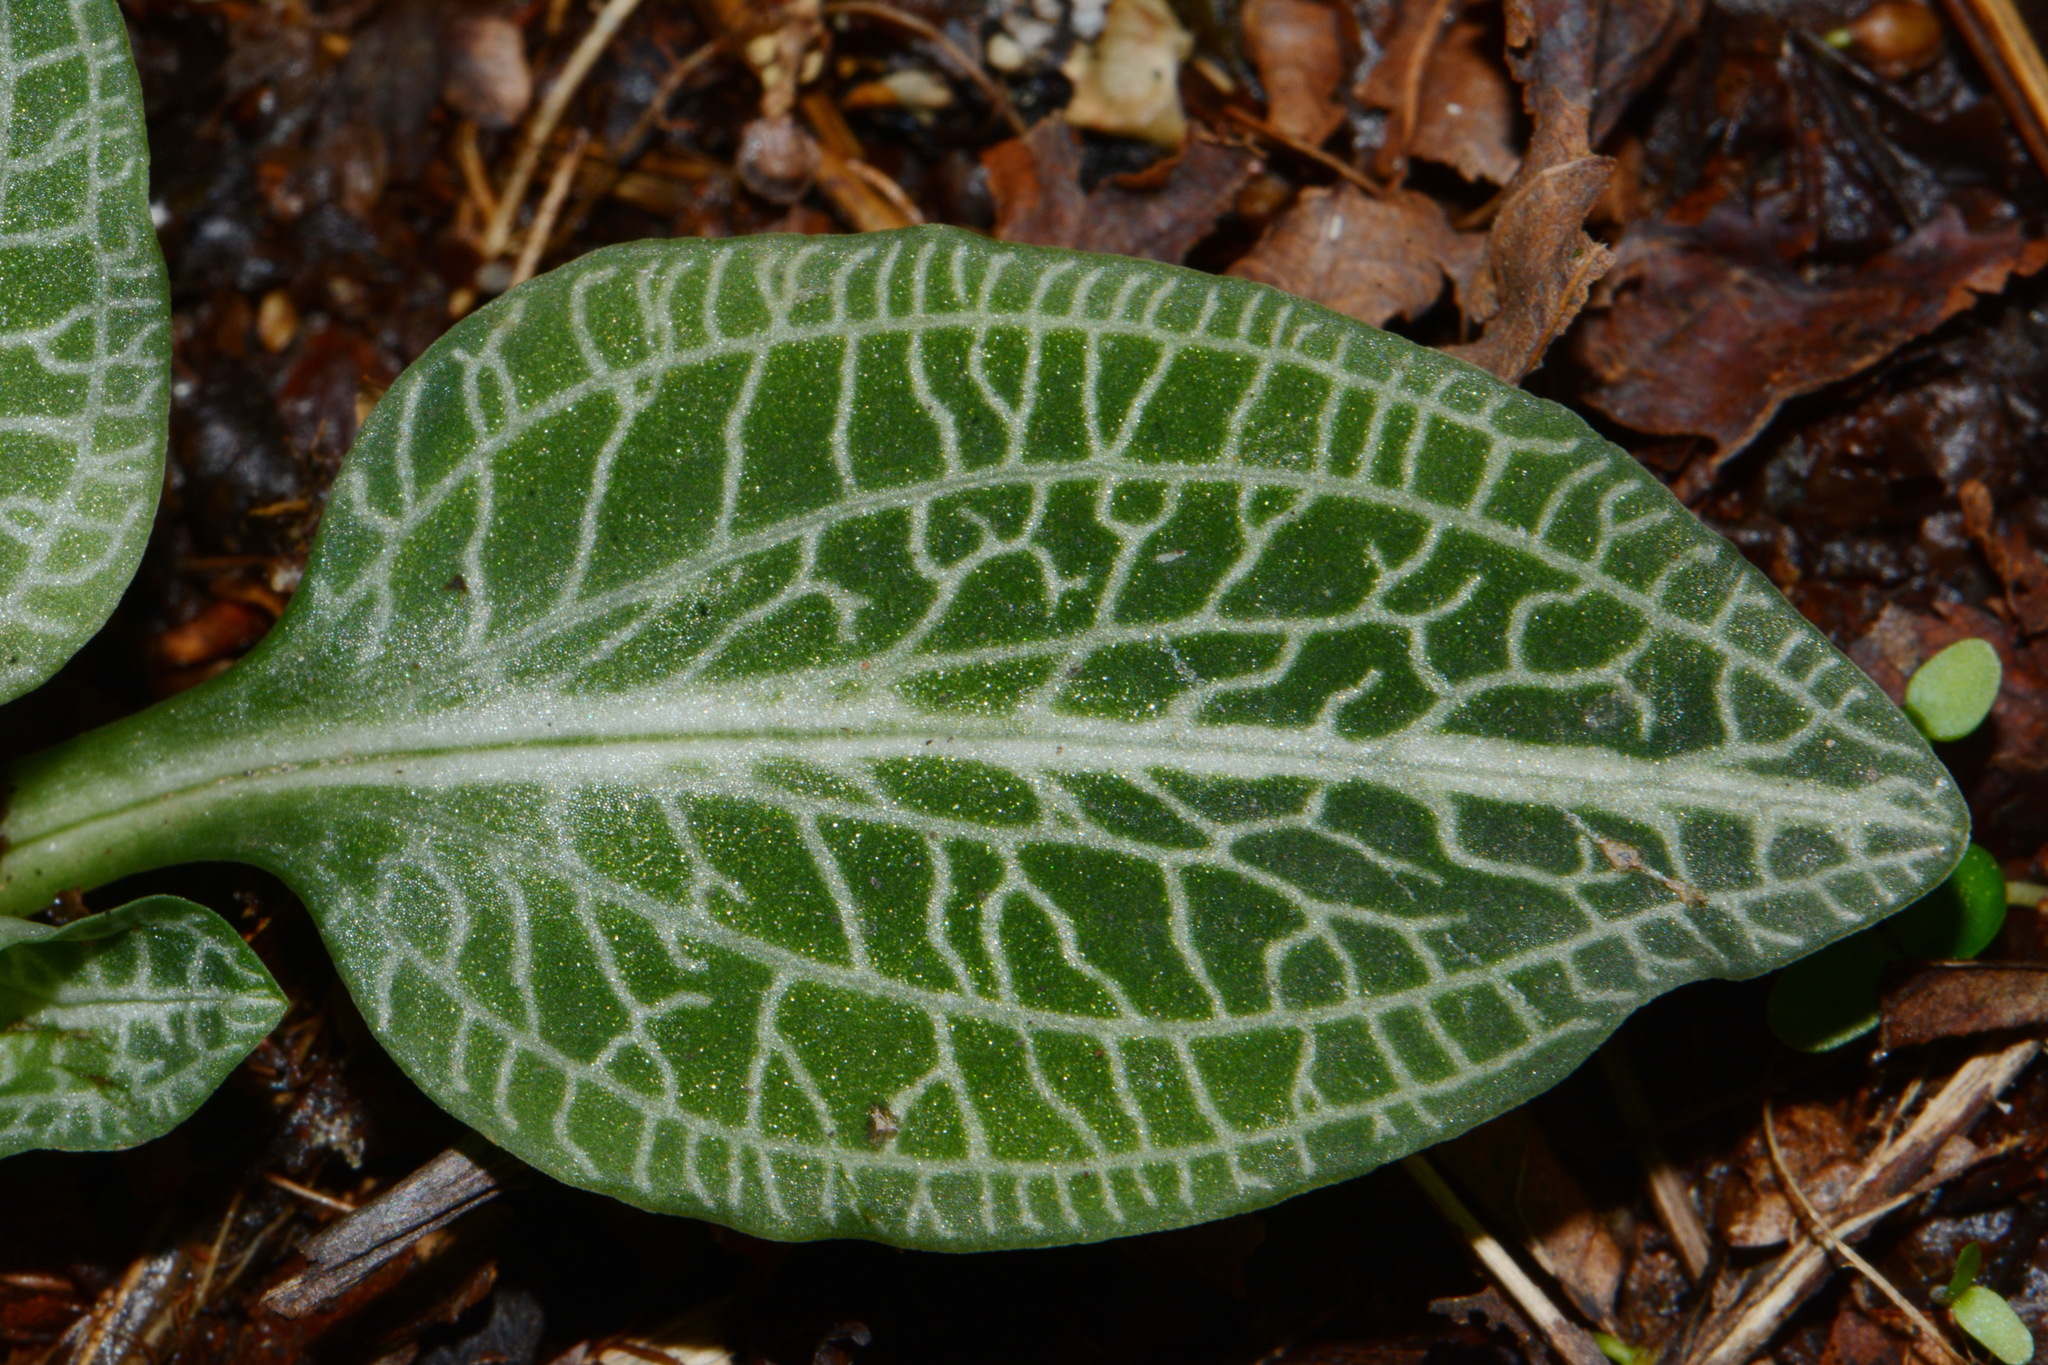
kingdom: Plantae
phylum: Tracheophyta
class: Liliopsida
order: Asparagales
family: Orchidaceae
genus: Goodyera
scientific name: Goodyera pubescens
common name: Downy rattlesnake-plantain
